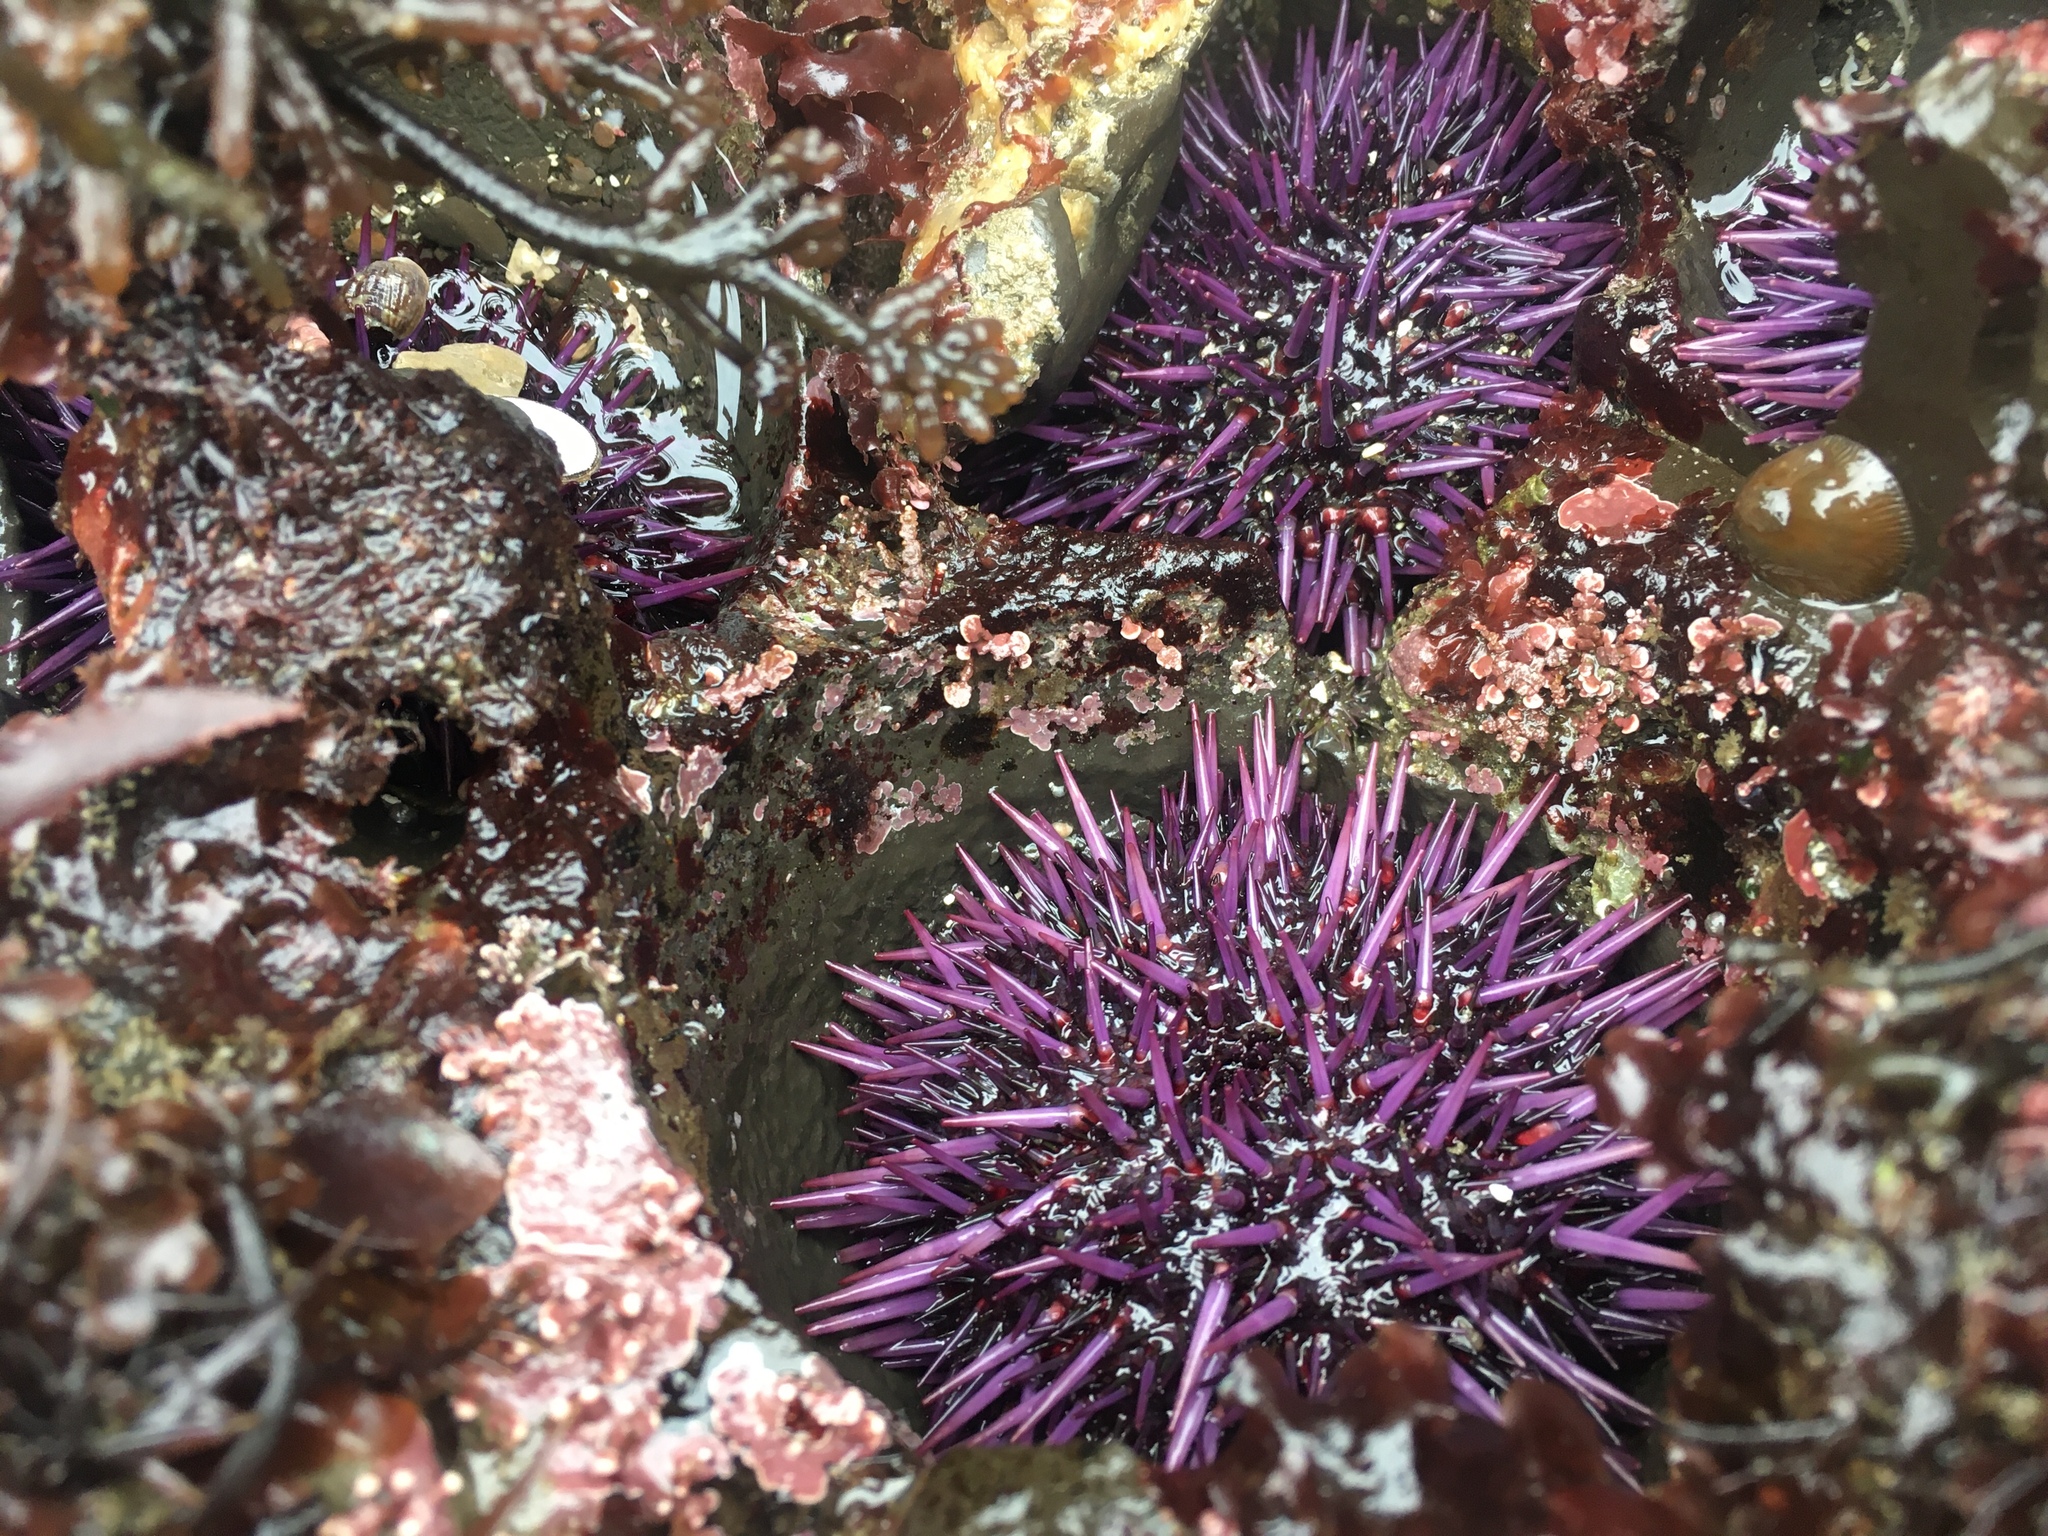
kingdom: Animalia
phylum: Echinodermata
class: Echinoidea
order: Camarodonta
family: Strongylocentrotidae
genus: Strongylocentrotus
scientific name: Strongylocentrotus purpuratus
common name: Purple sea urchin
